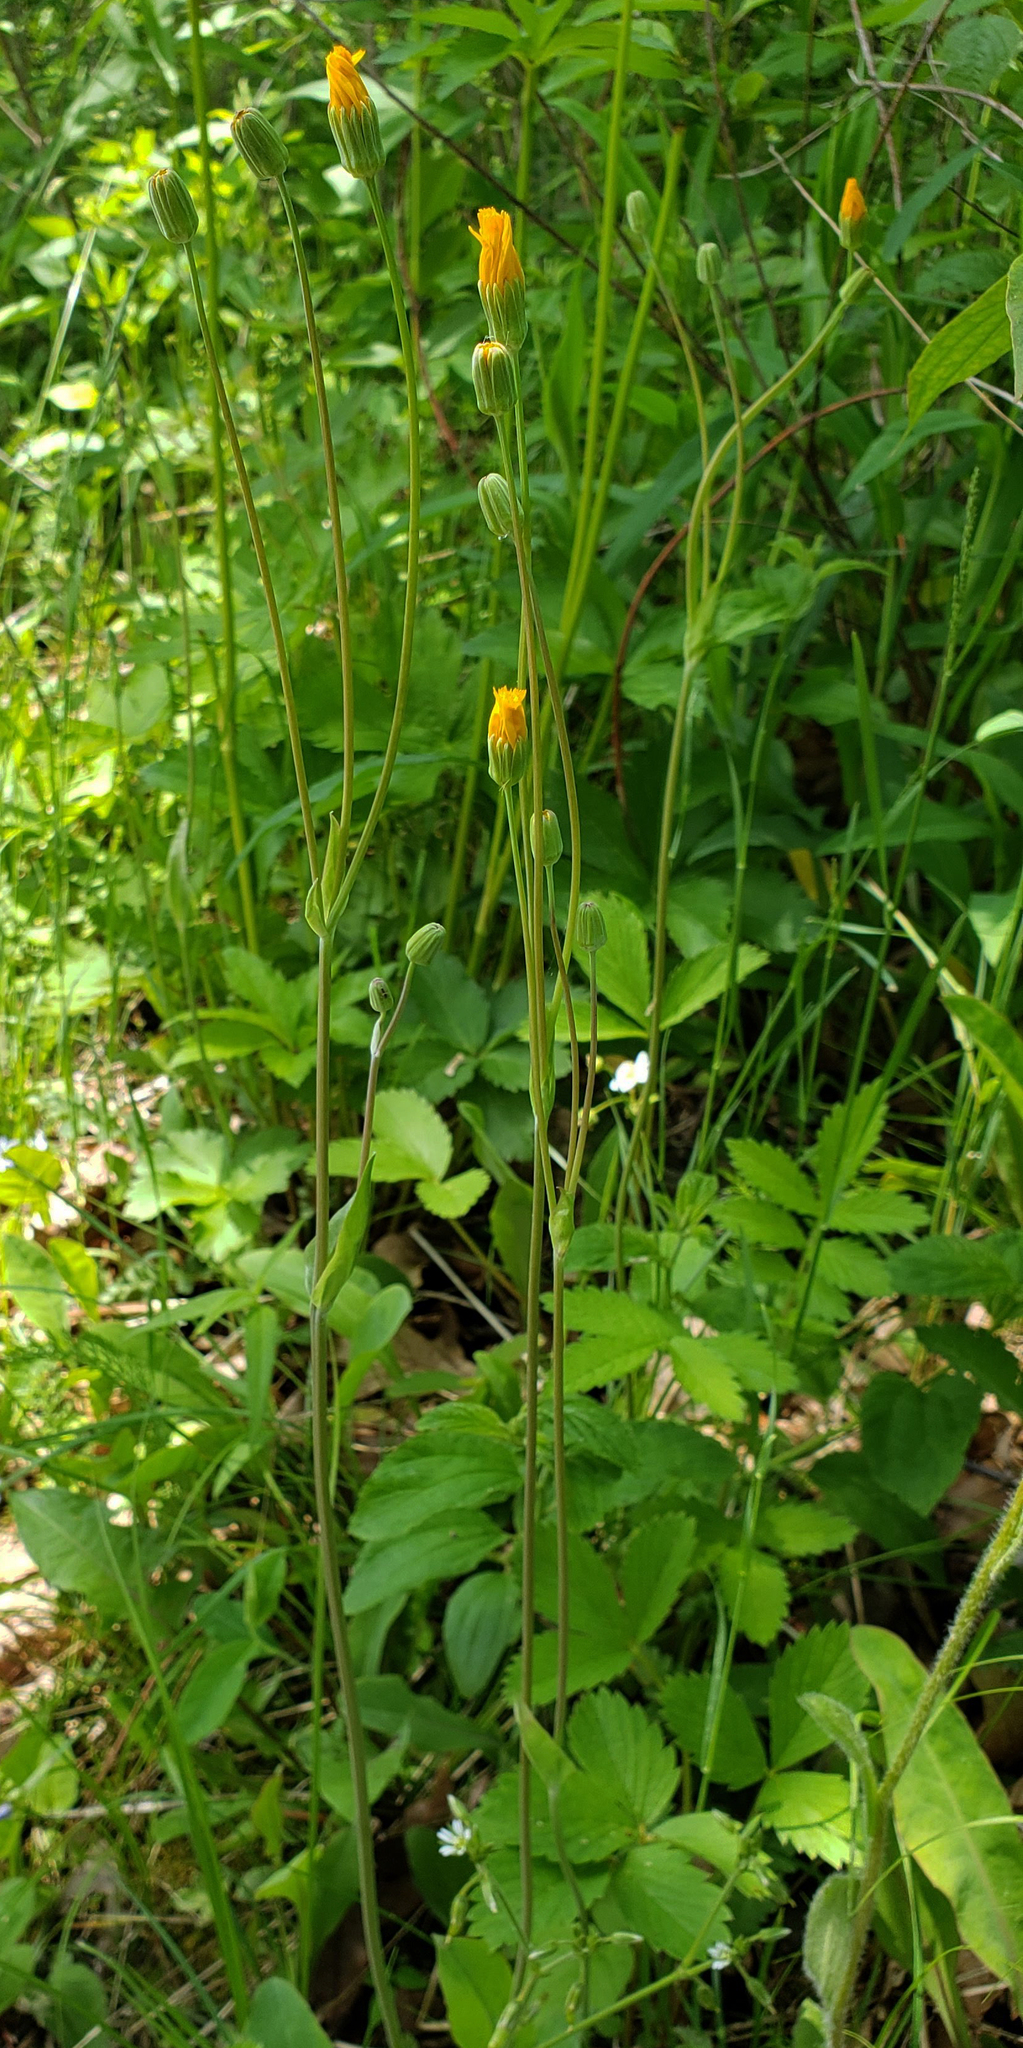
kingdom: Plantae
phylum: Tracheophyta
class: Magnoliopsida
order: Asterales
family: Asteraceae
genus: Krigia
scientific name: Krigia biflora
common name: Orange dwarf-dandelion
